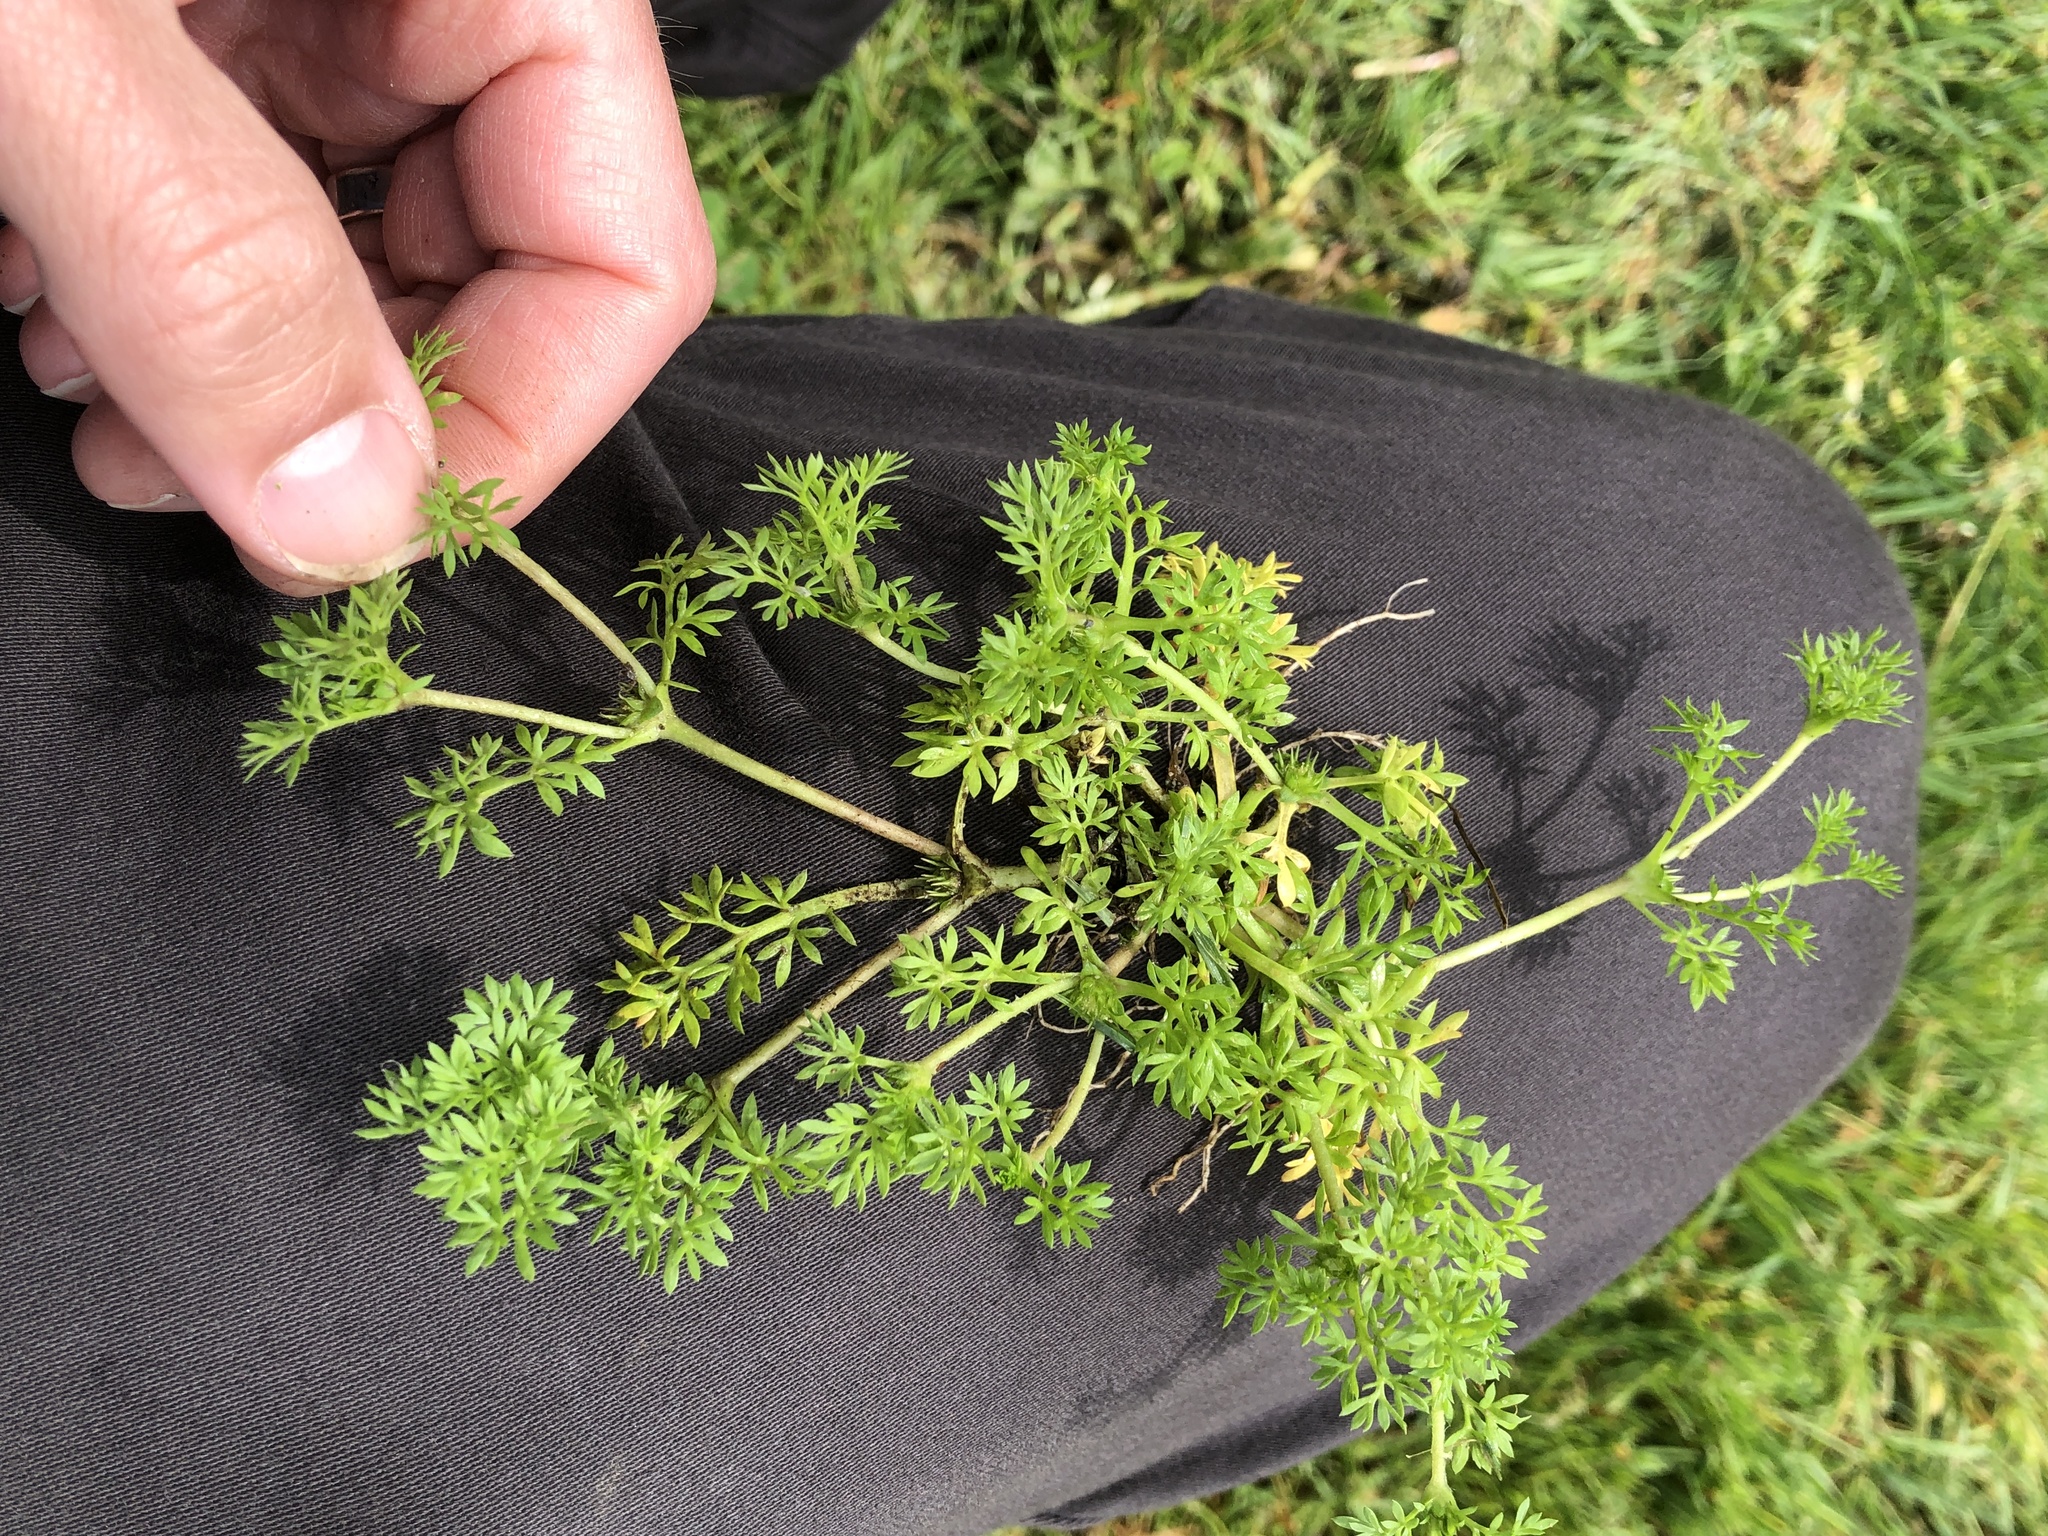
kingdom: Plantae
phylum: Tracheophyta
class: Magnoliopsida
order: Asterales
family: Asteraceae
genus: Soliva
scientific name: Soliva sessilis
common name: Field burrweed
